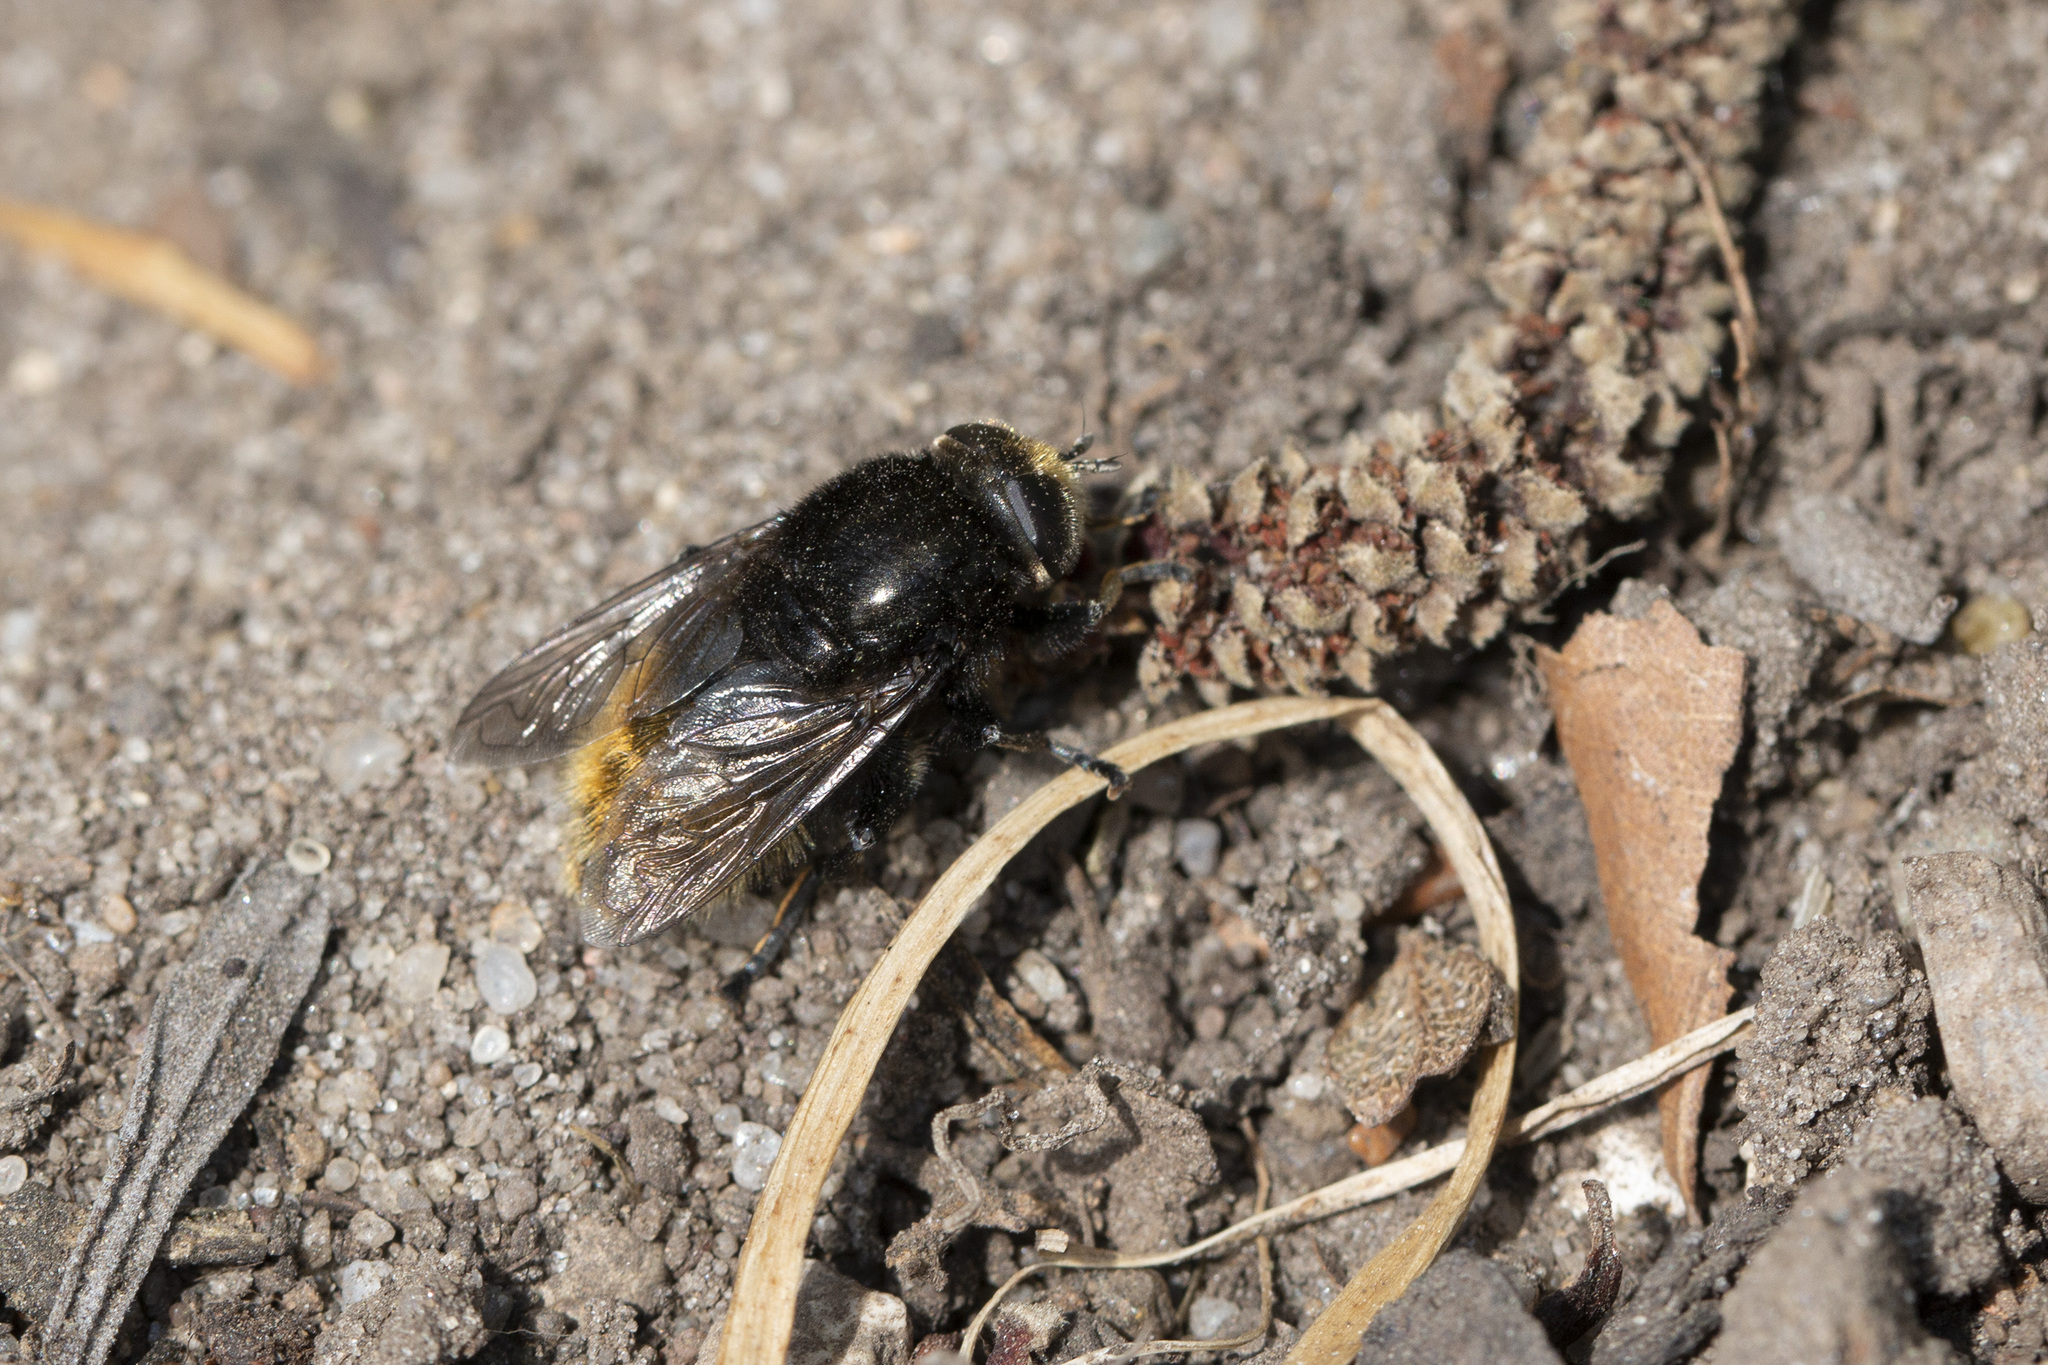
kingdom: Animalia
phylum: Arthropoda
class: Insecta
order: Diptera
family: Syrphidae
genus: Merodon
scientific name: Merodon equestris
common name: Greater bulb-fly
